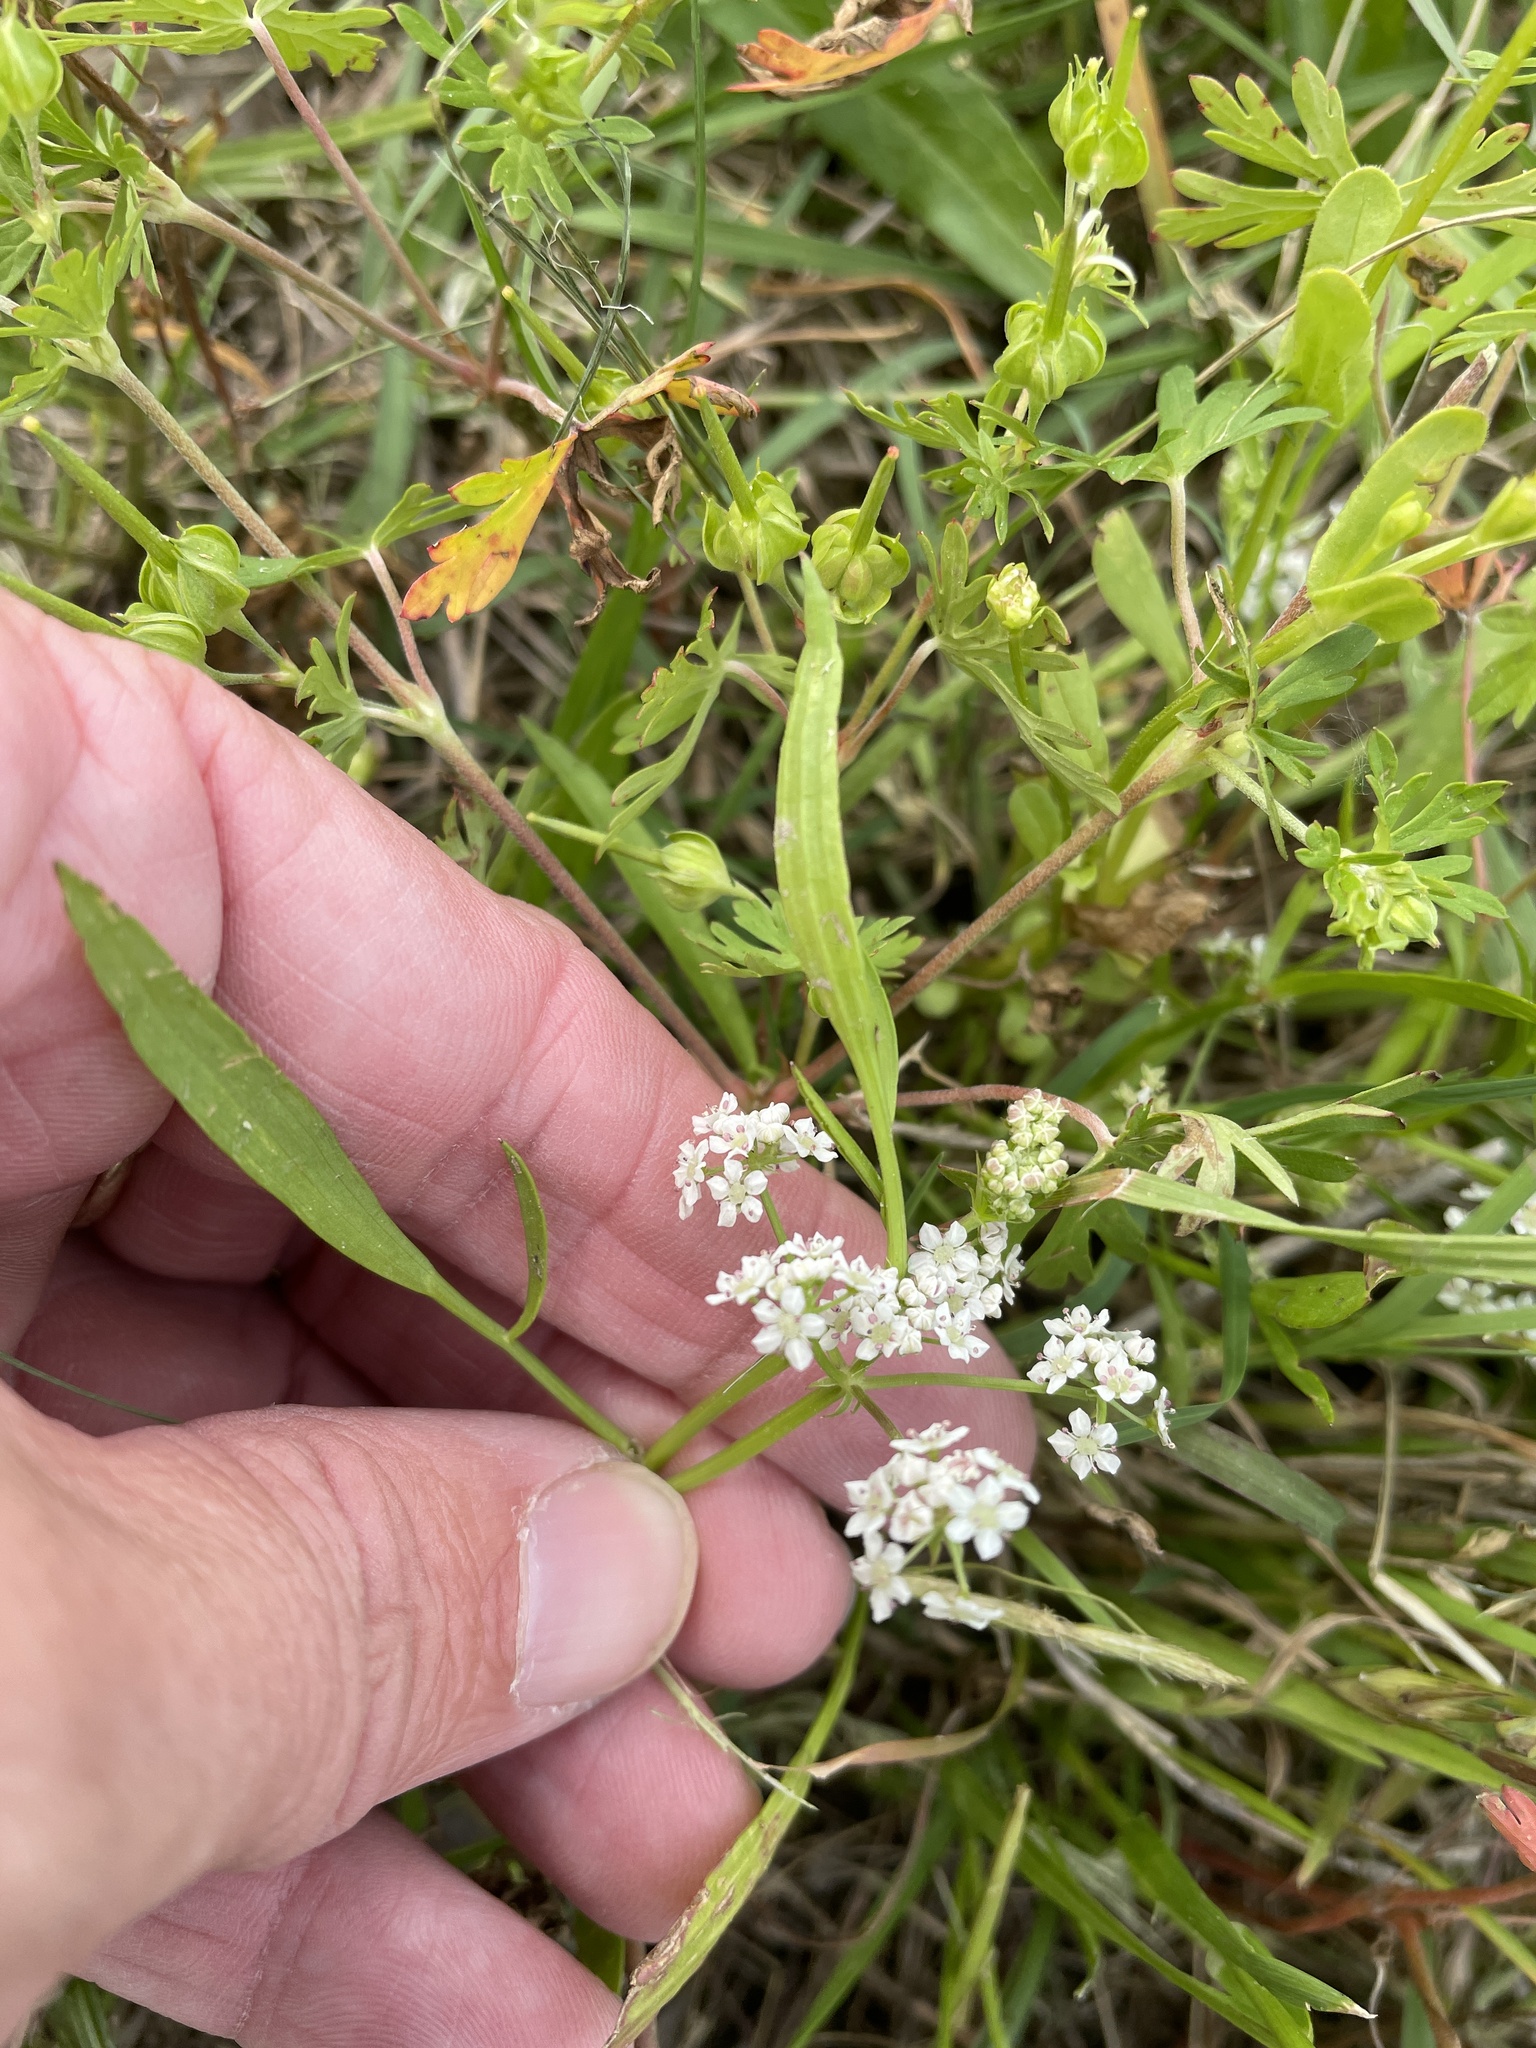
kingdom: Plantae
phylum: Tracheophyta
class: Magnoliopsida
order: Apiales
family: Apiaceae
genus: Limnosciadium
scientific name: Limnosciadium pinnatum
